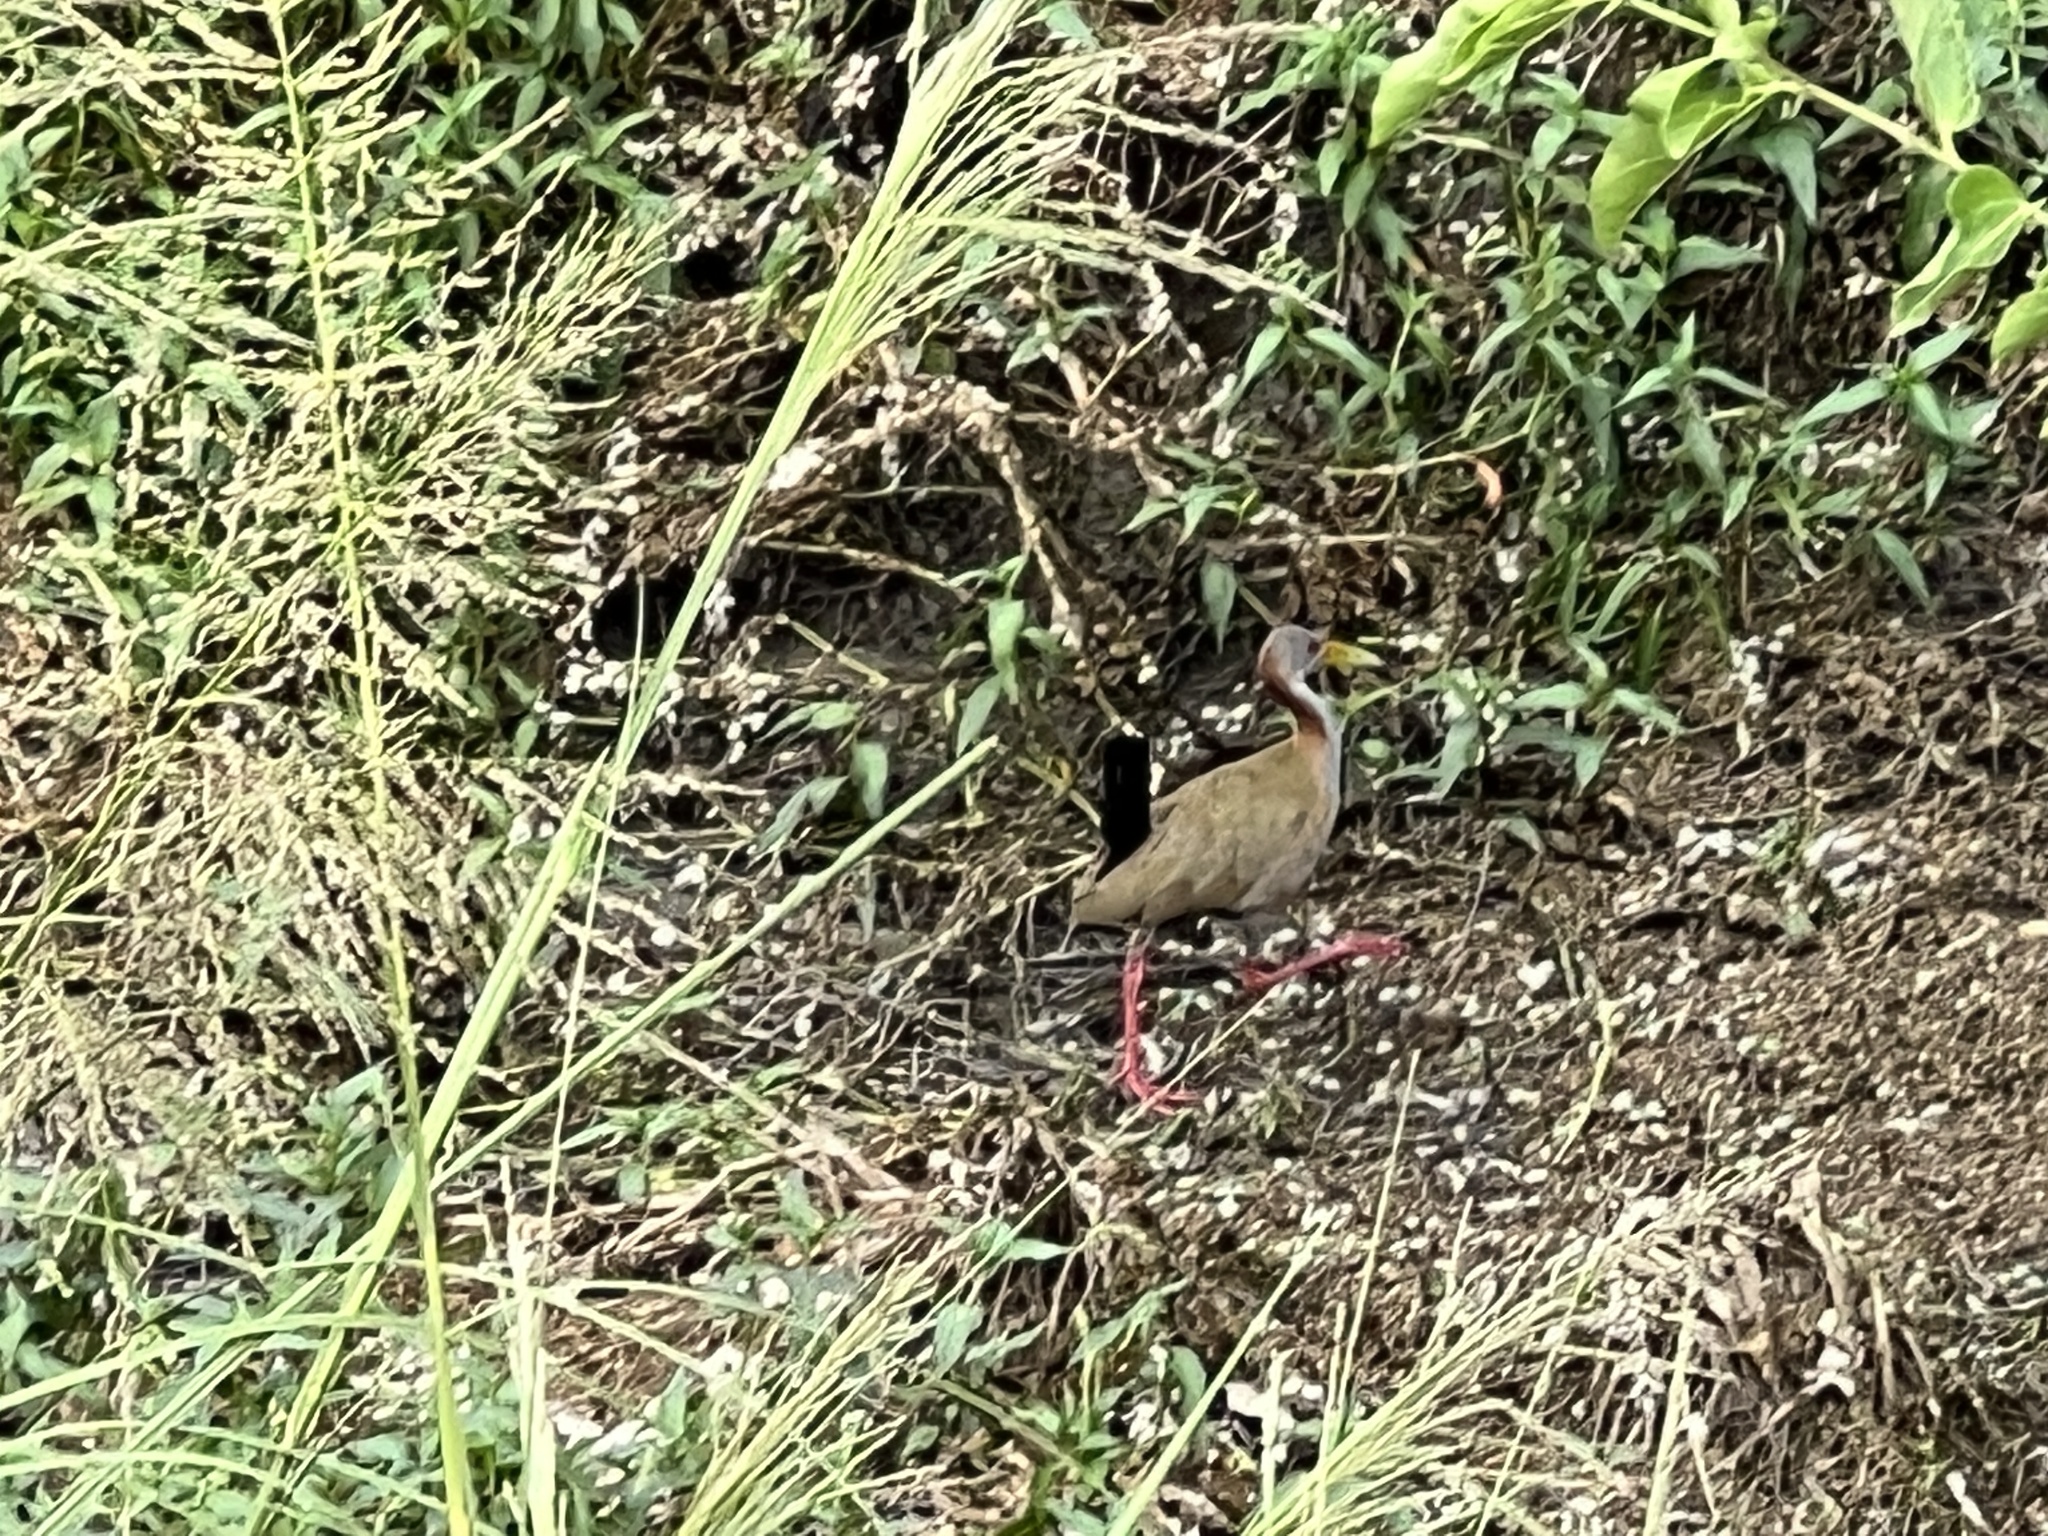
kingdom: Animalia
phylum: Chordata
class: Aves
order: Gruiformes
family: Rallidae
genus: Aramides
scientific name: Aramides ypecaha
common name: Giant wood rail
